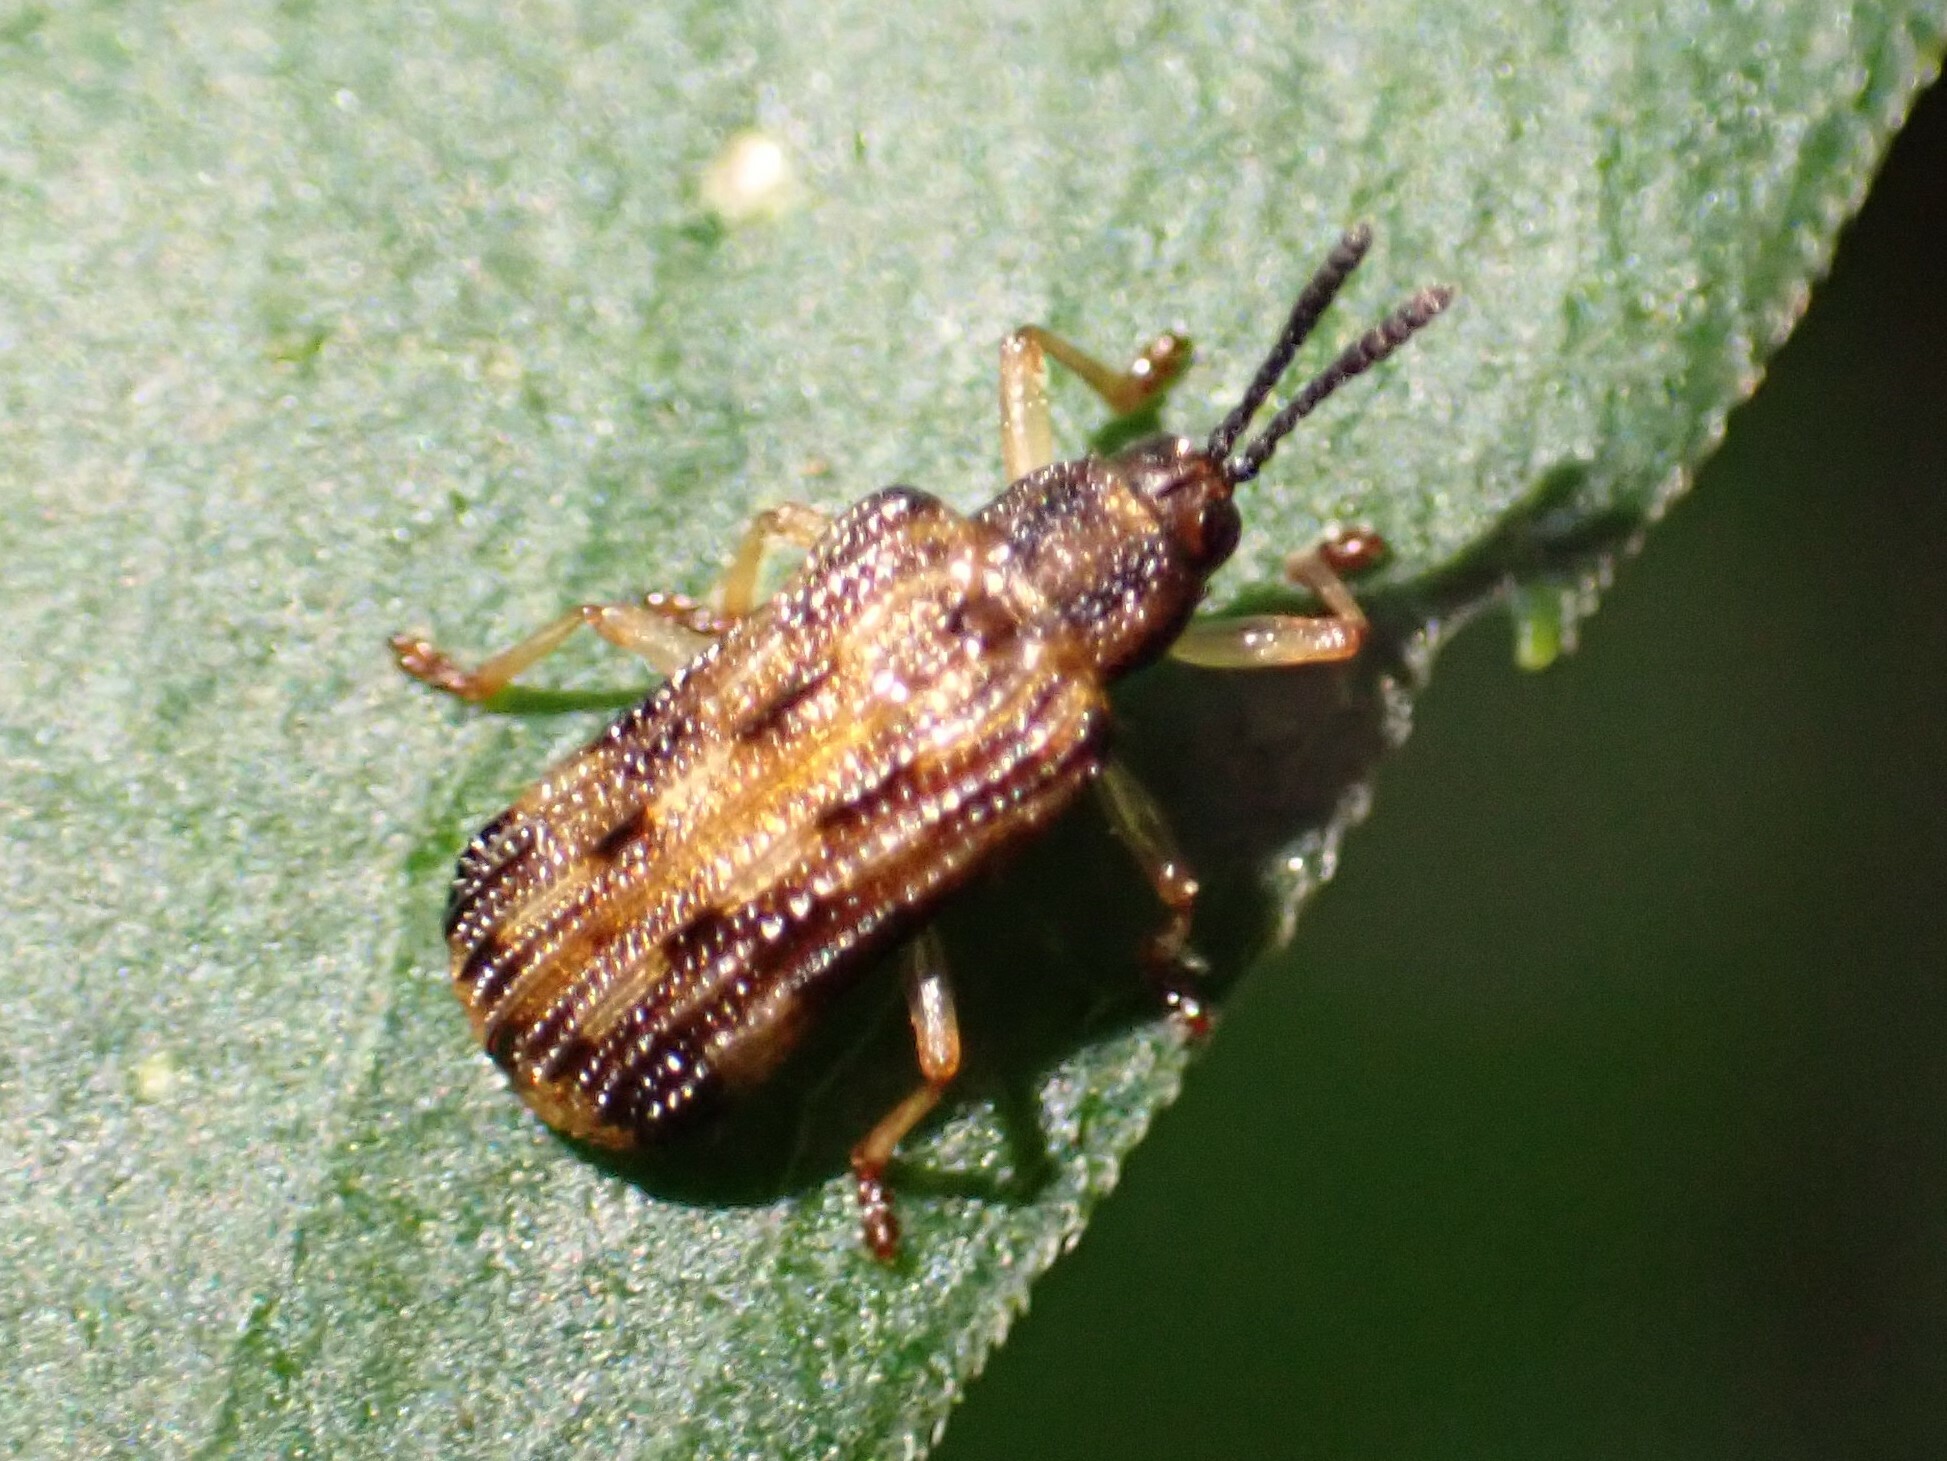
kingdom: Animalia
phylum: Arthropoda
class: Insecta
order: Coleoptera
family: Chrysomelidae
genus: Sumitrosis
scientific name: Sumitrosis inaequalis
